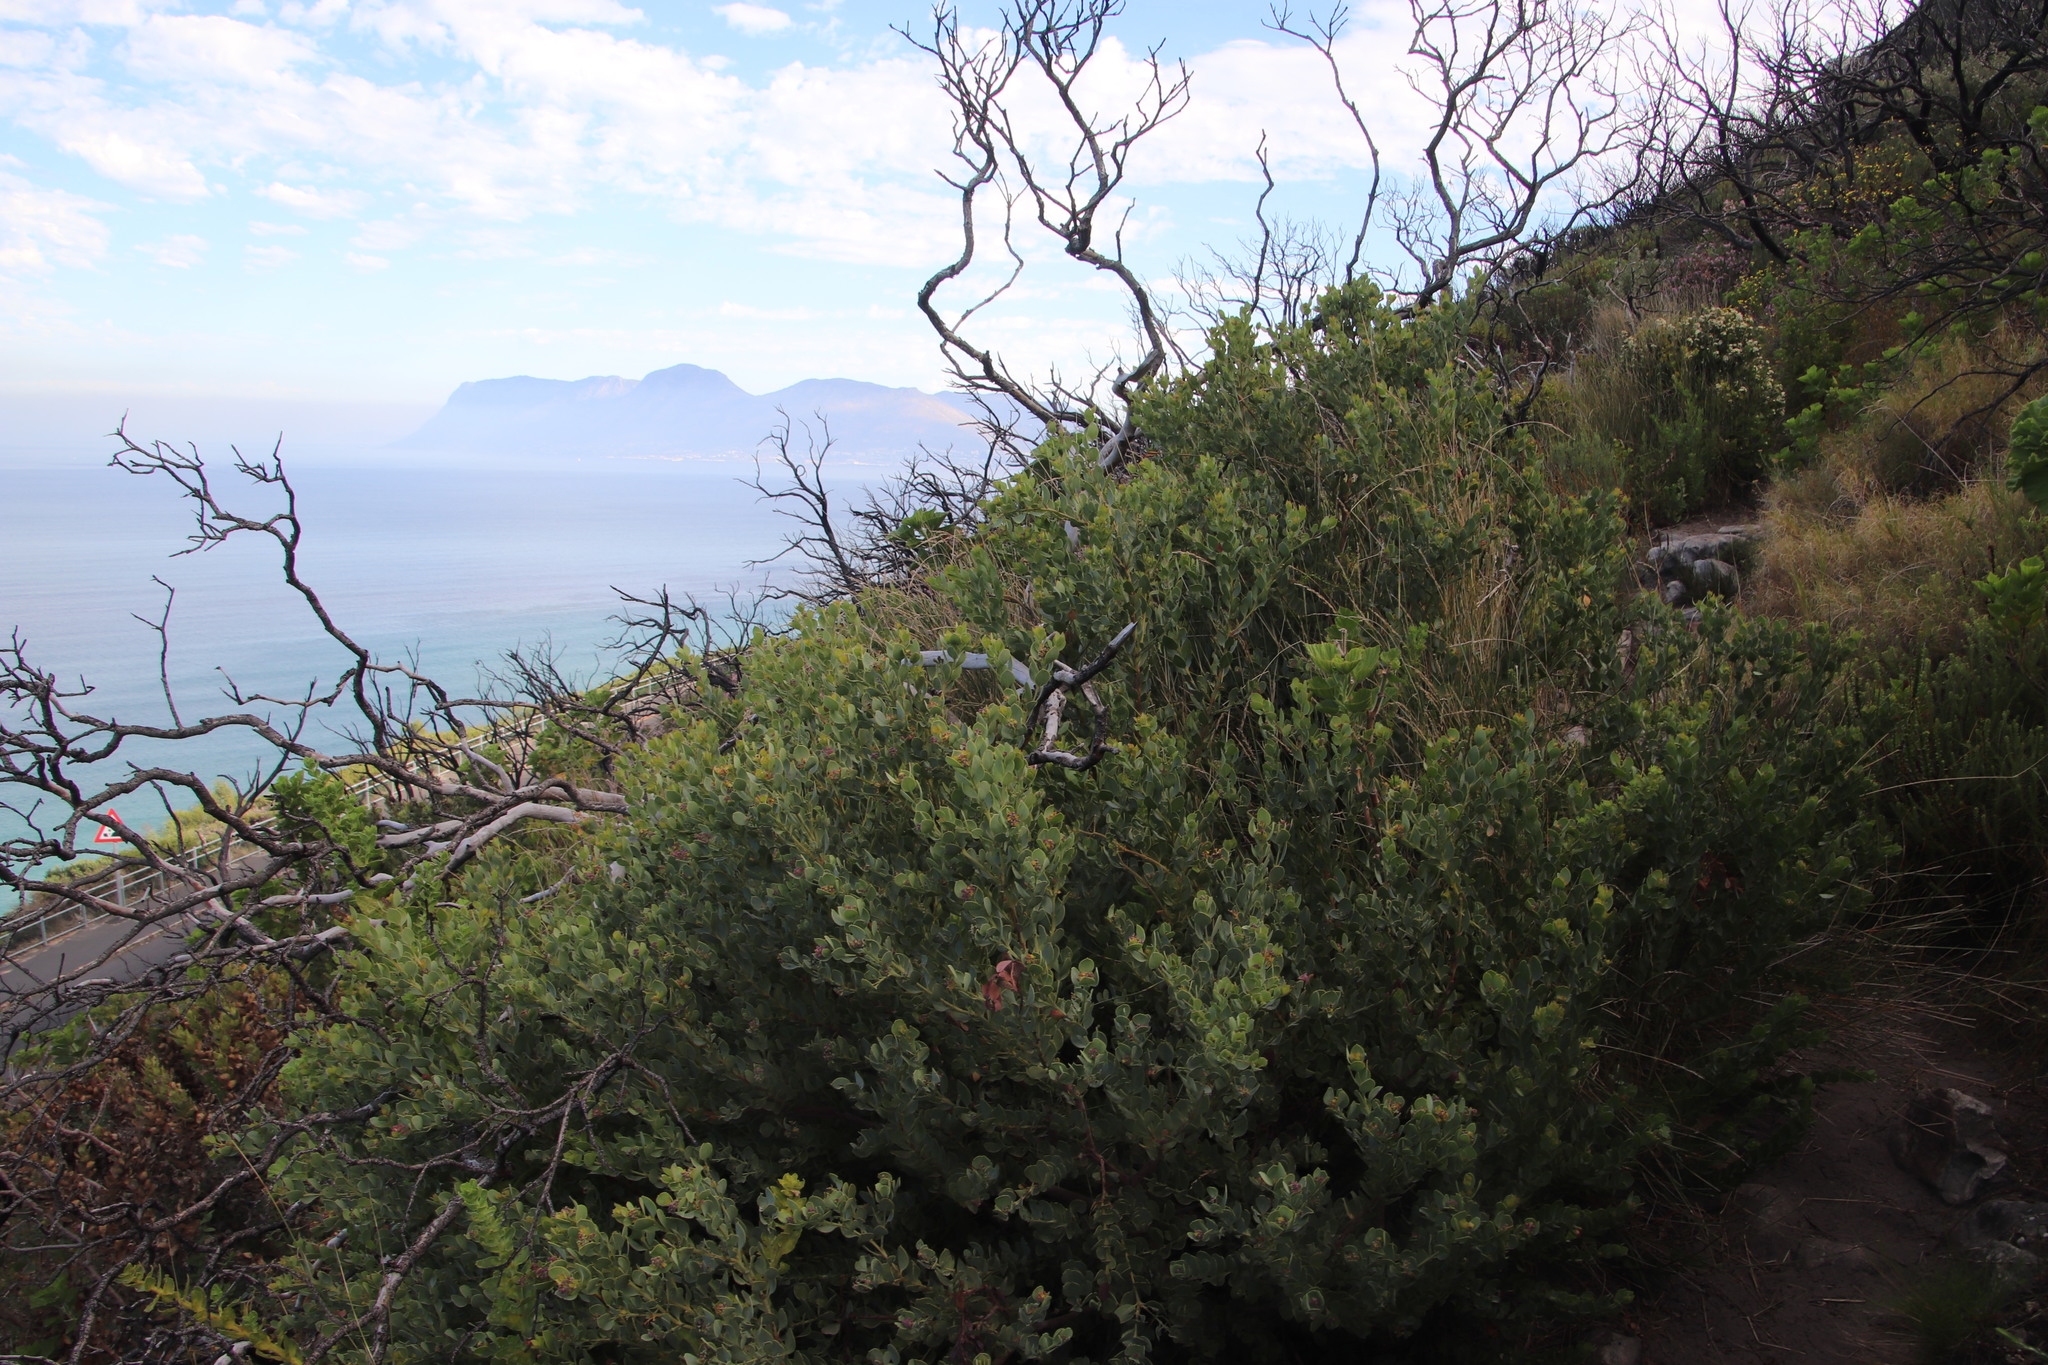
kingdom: Plantae
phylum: Tracheophyta
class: Magnoliopsida
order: Santalales
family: Santalaceae
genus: Osyris
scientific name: Osyris compressa
